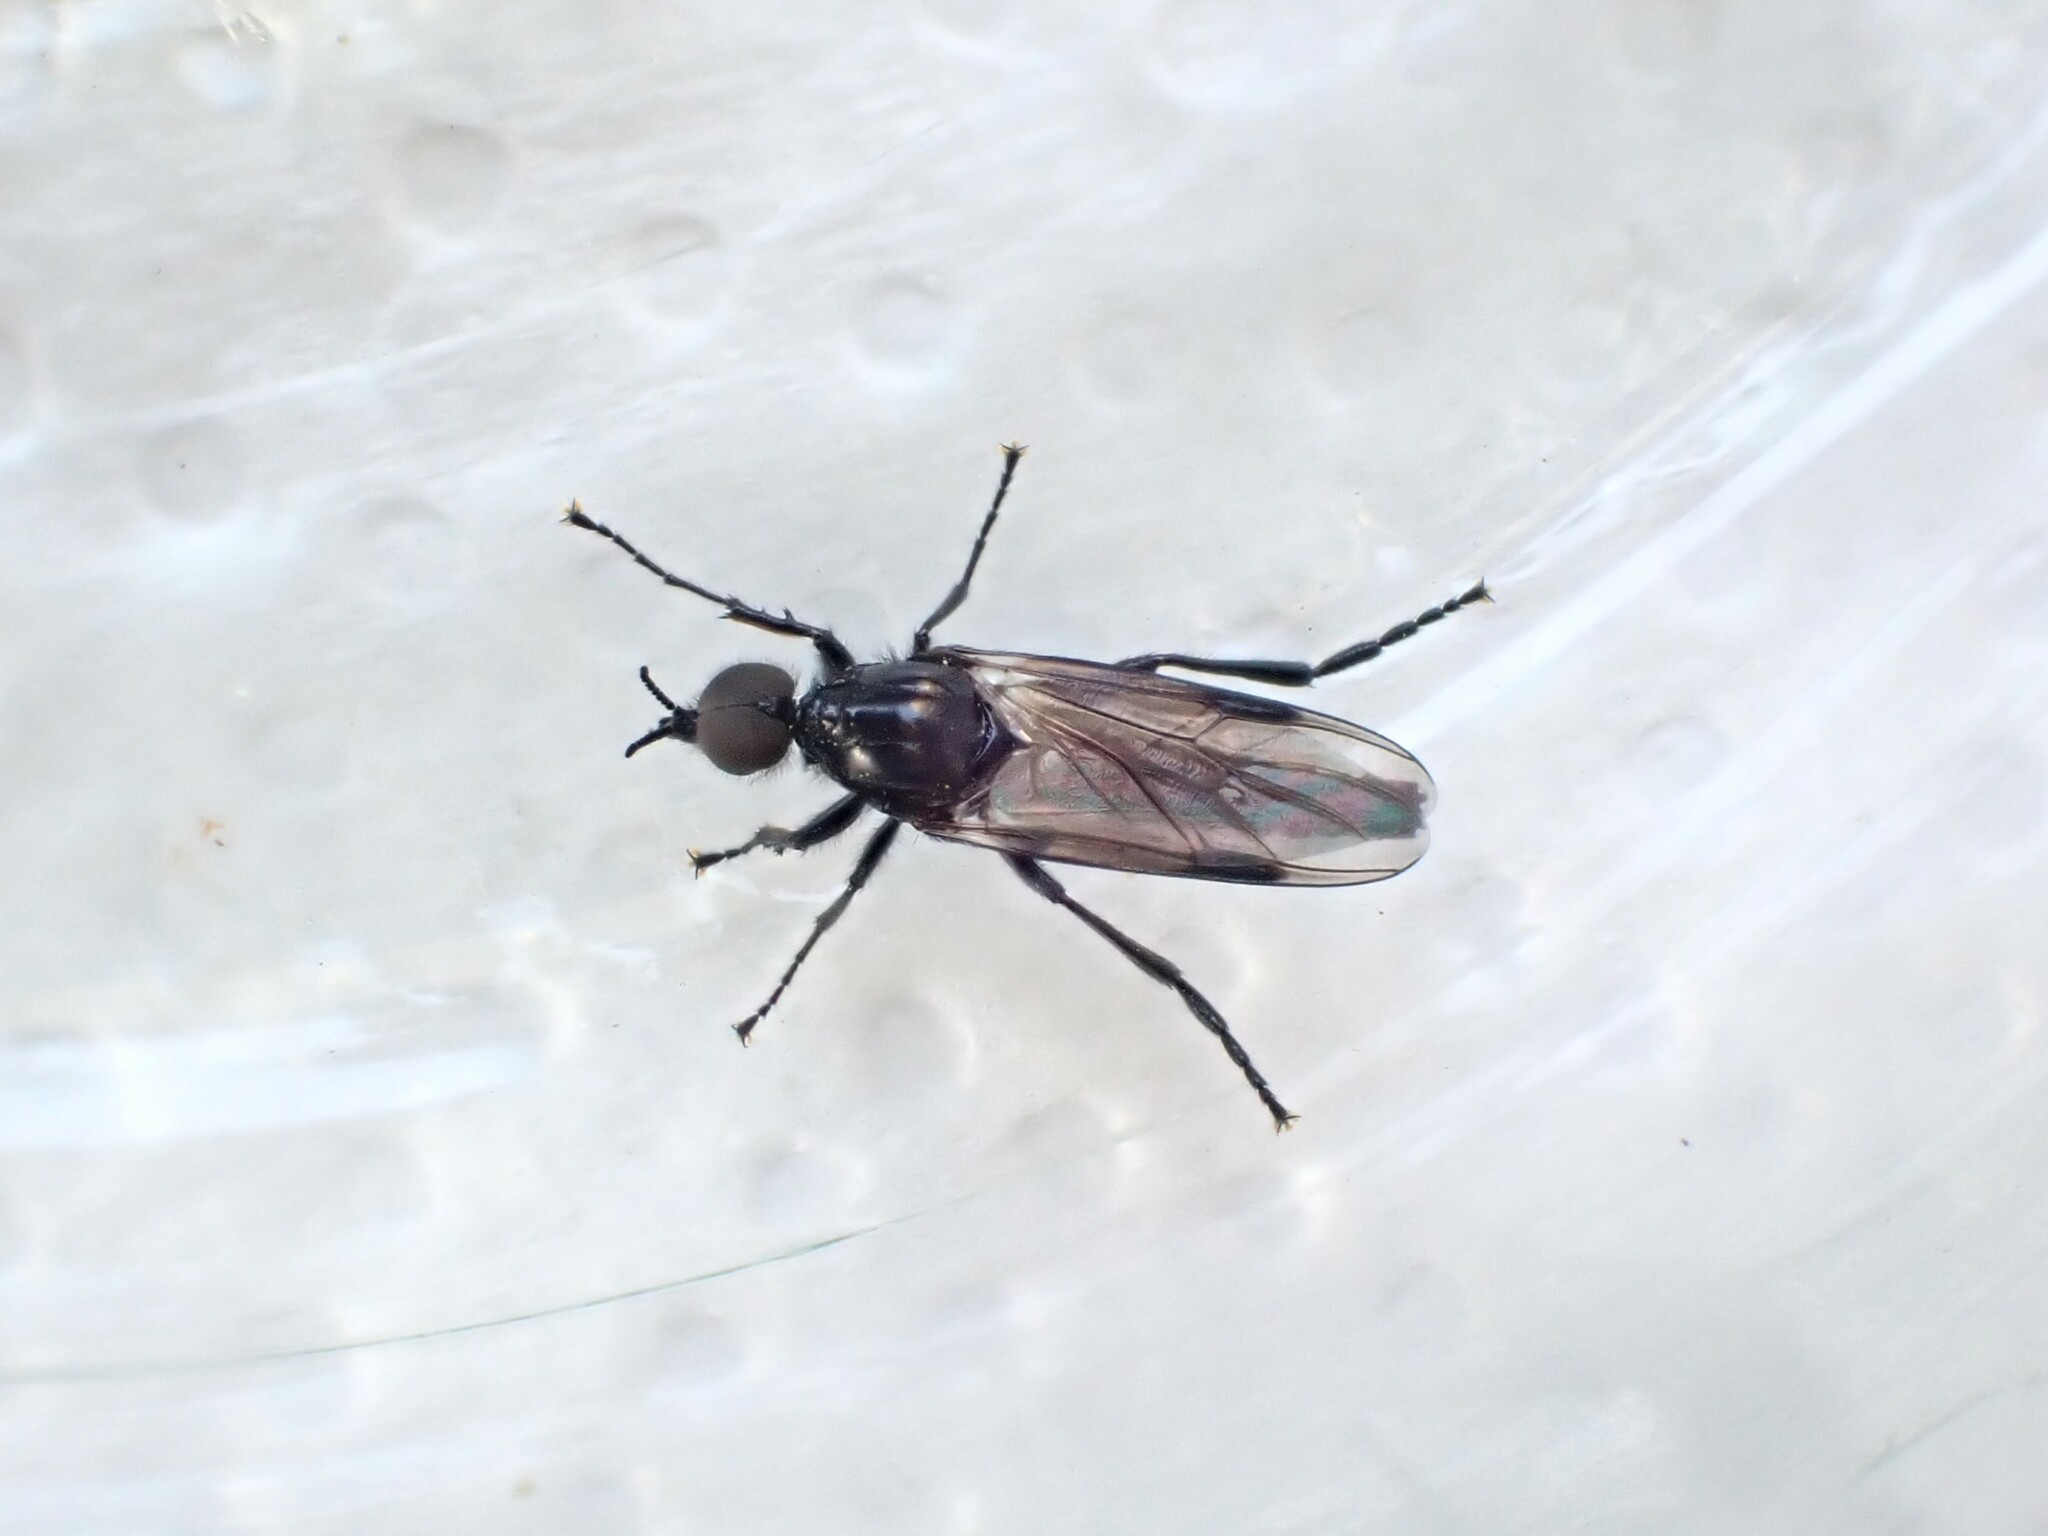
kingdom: Animalia
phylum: Arthropoda
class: Insecta
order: Diptera
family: Bibionidae
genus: Dilophus
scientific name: Dilophus nigrostigma
